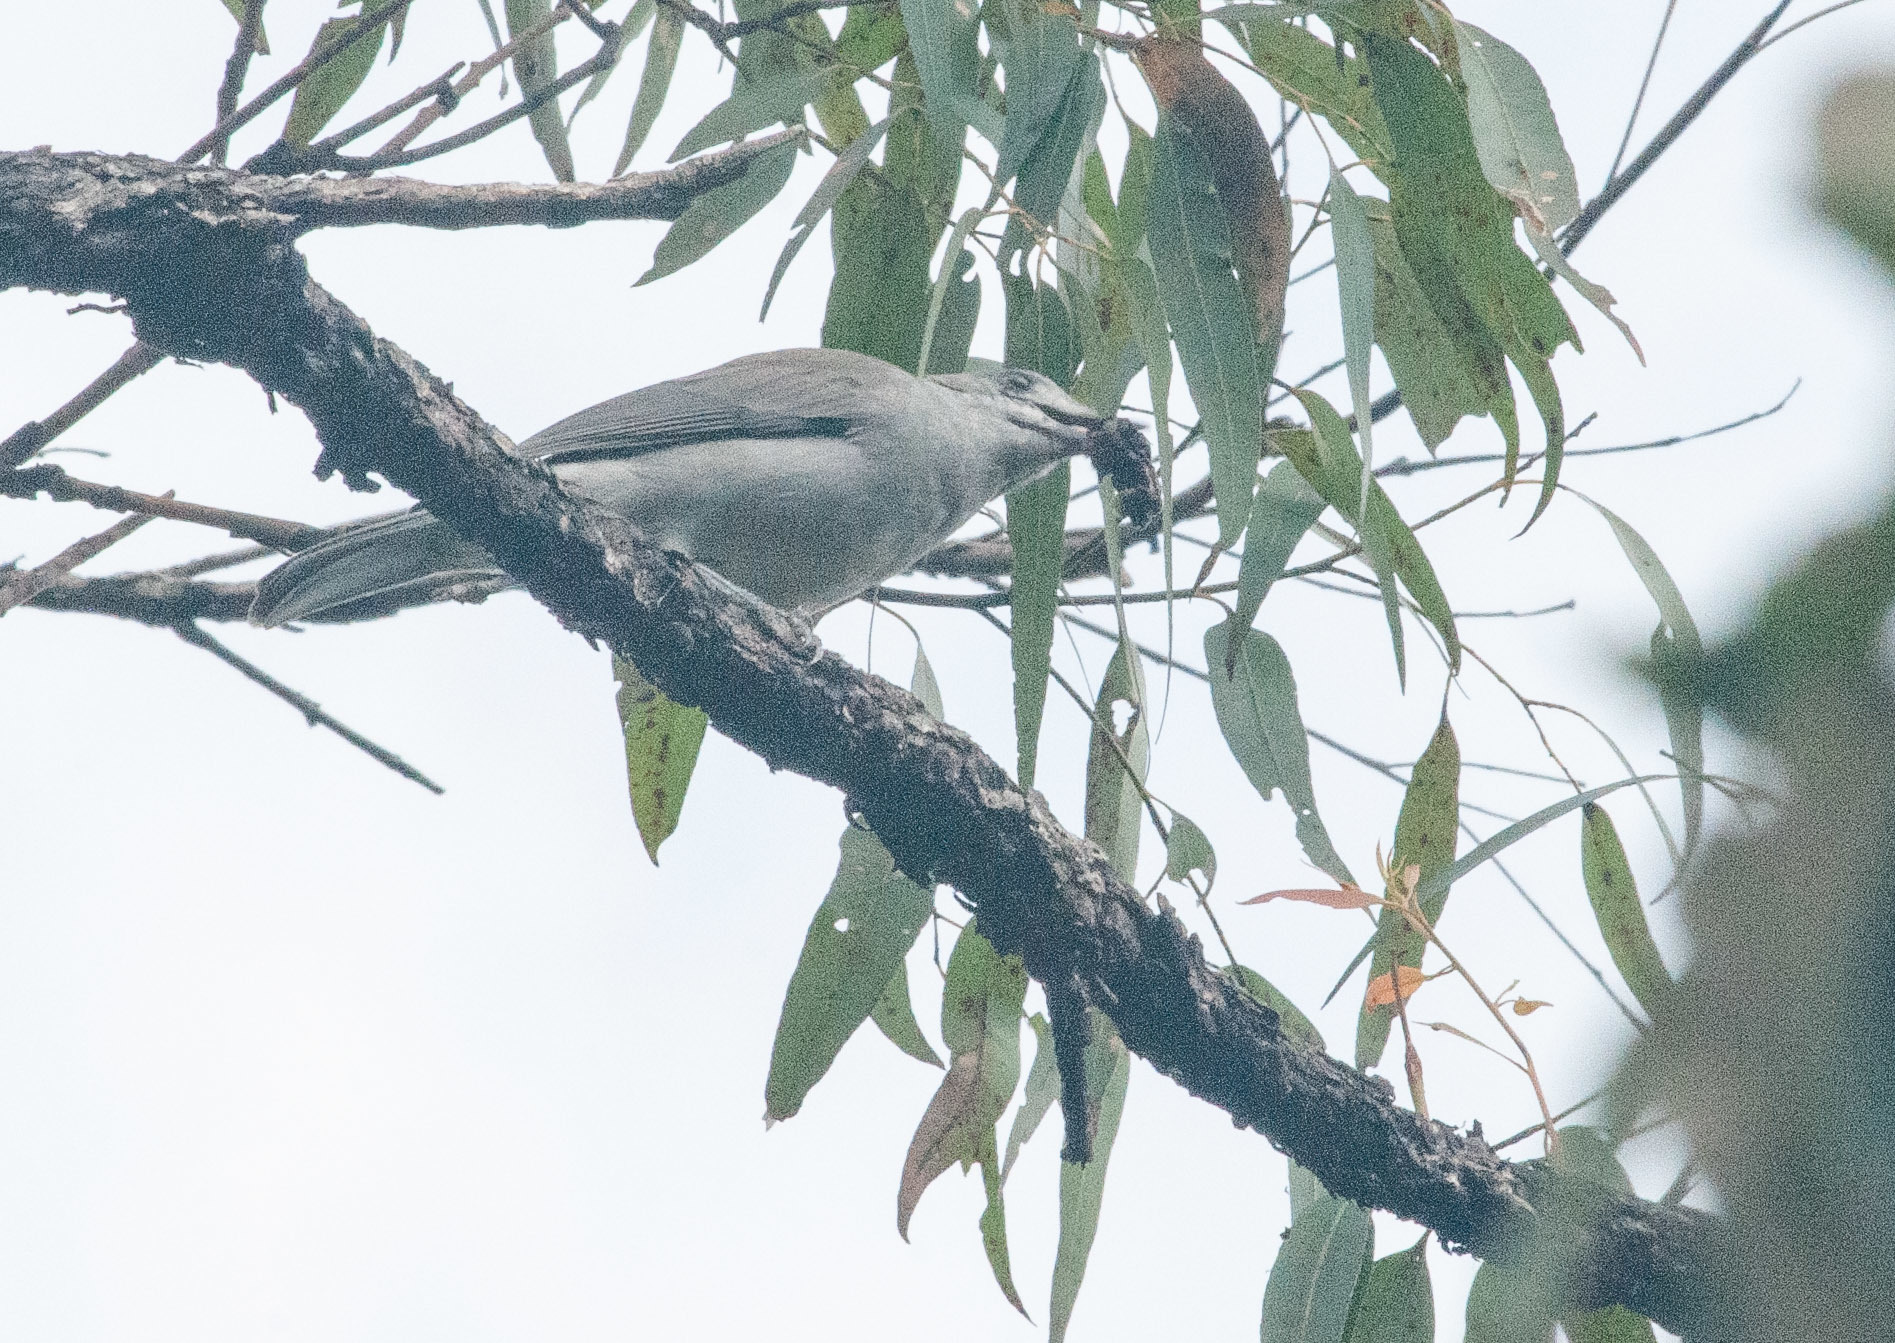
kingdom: Animalia
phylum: Chordata
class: Aves
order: Passeriformes
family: Campephagidae
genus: Edolisoma
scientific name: Edolisoma tenuirostre
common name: Common cicadabird
